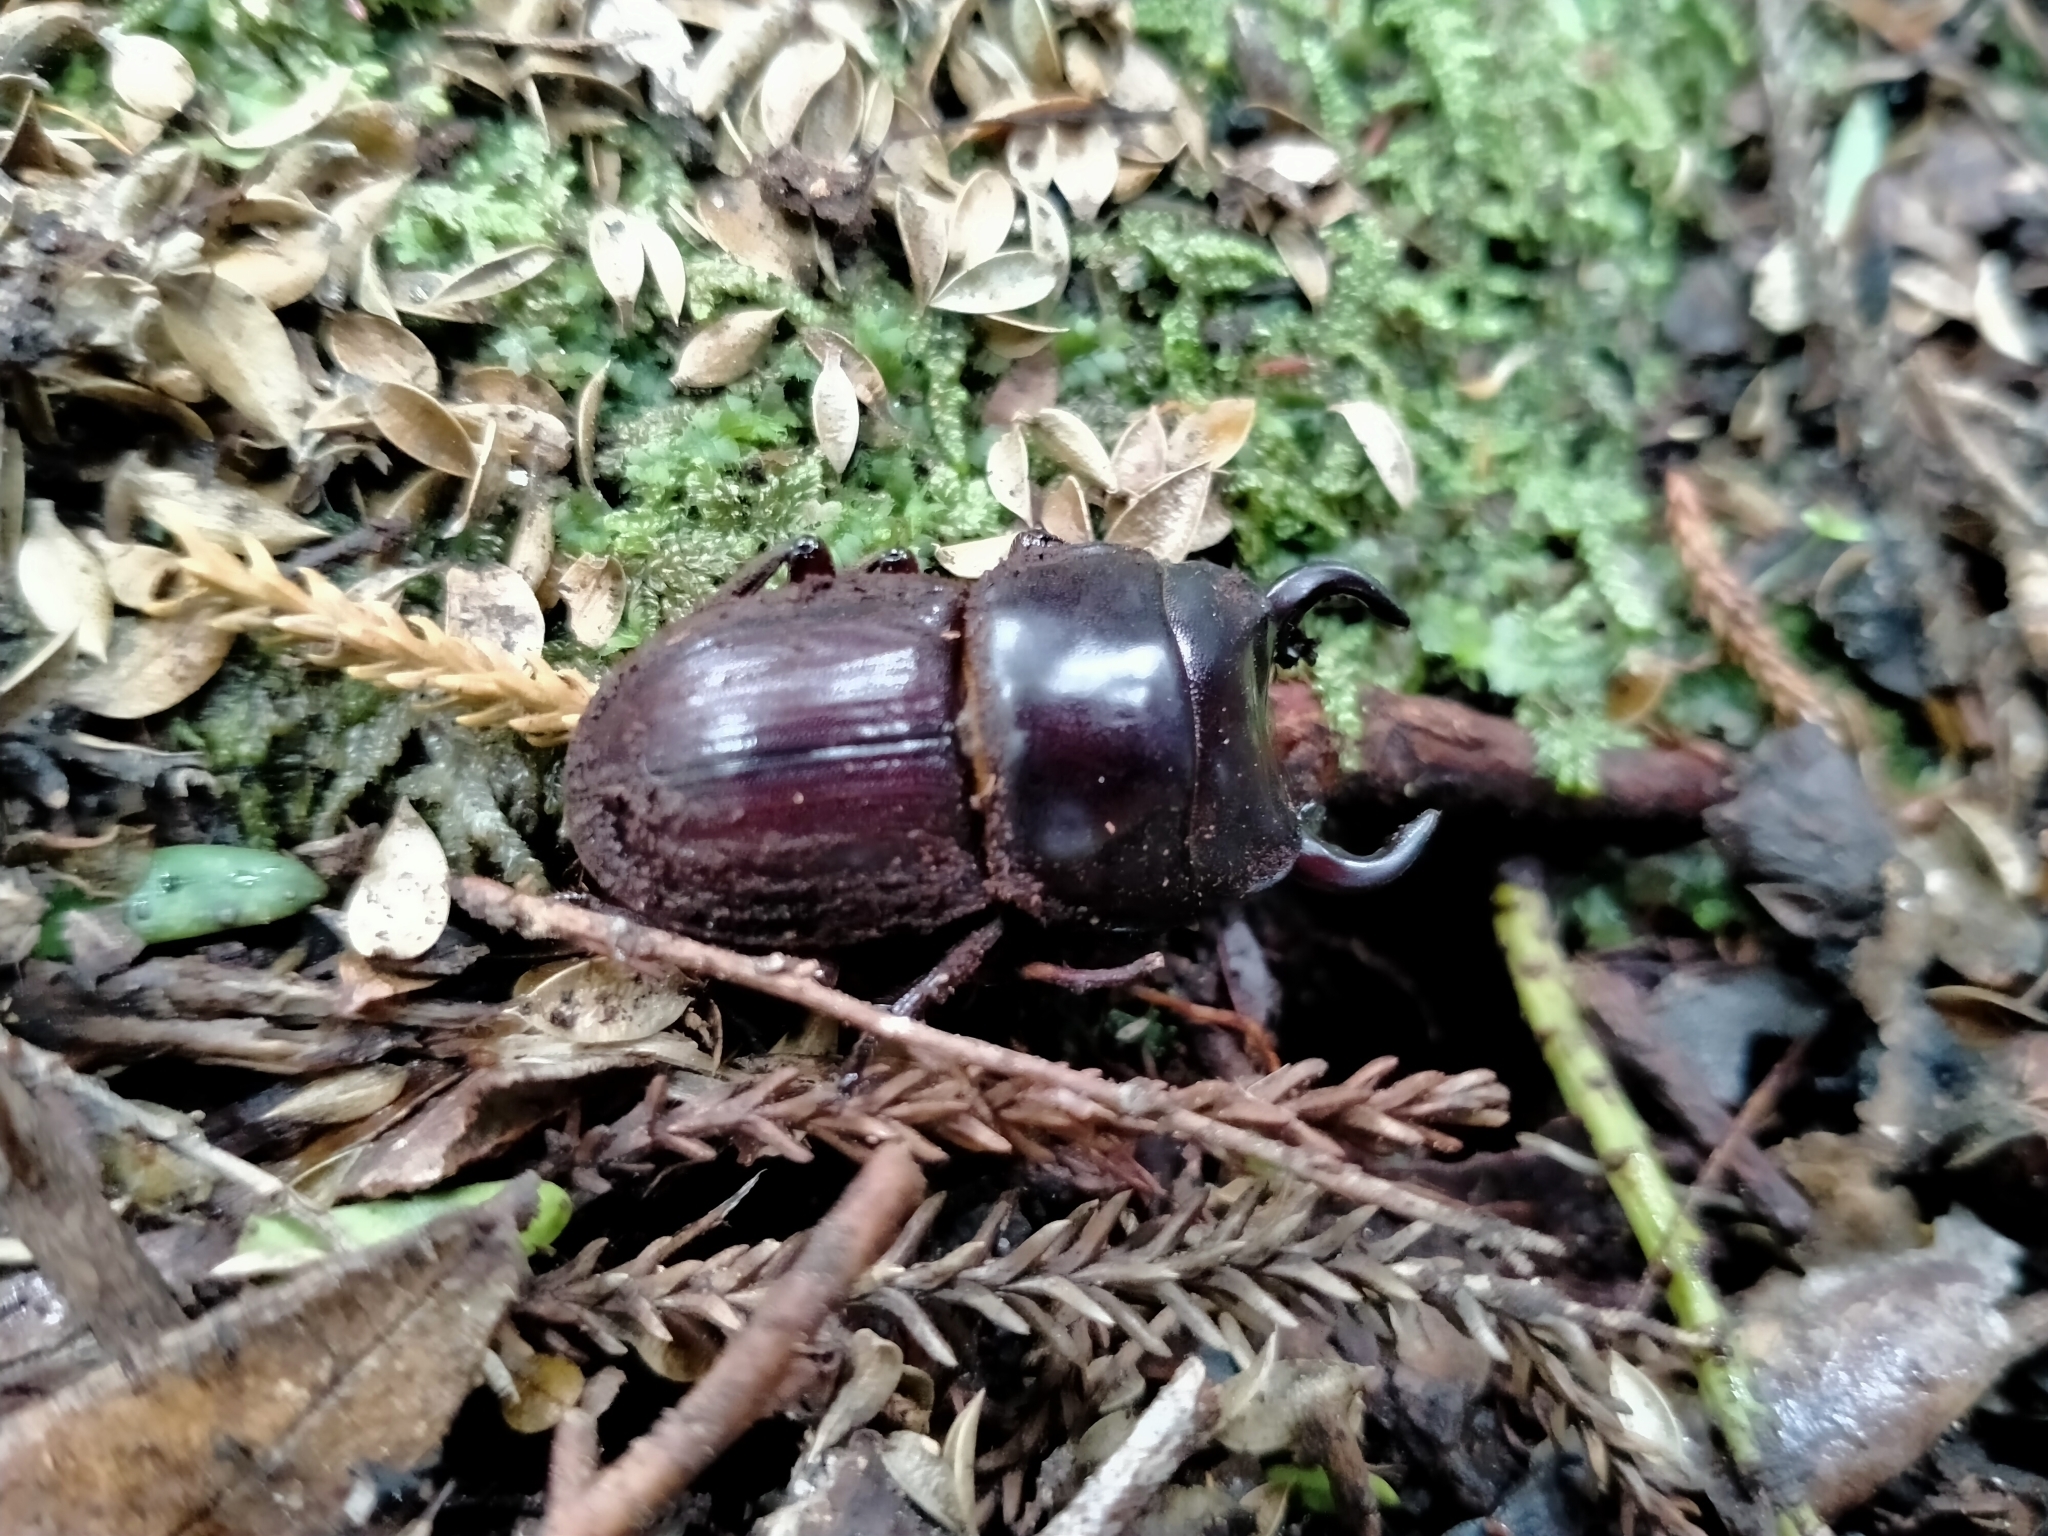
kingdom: Animalia
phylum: Arthropoda
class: Insecta
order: Coleoptera
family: Lucanidae
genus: Geodorcus
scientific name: Geodorcus helmsi
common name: Helm's stag beetle
